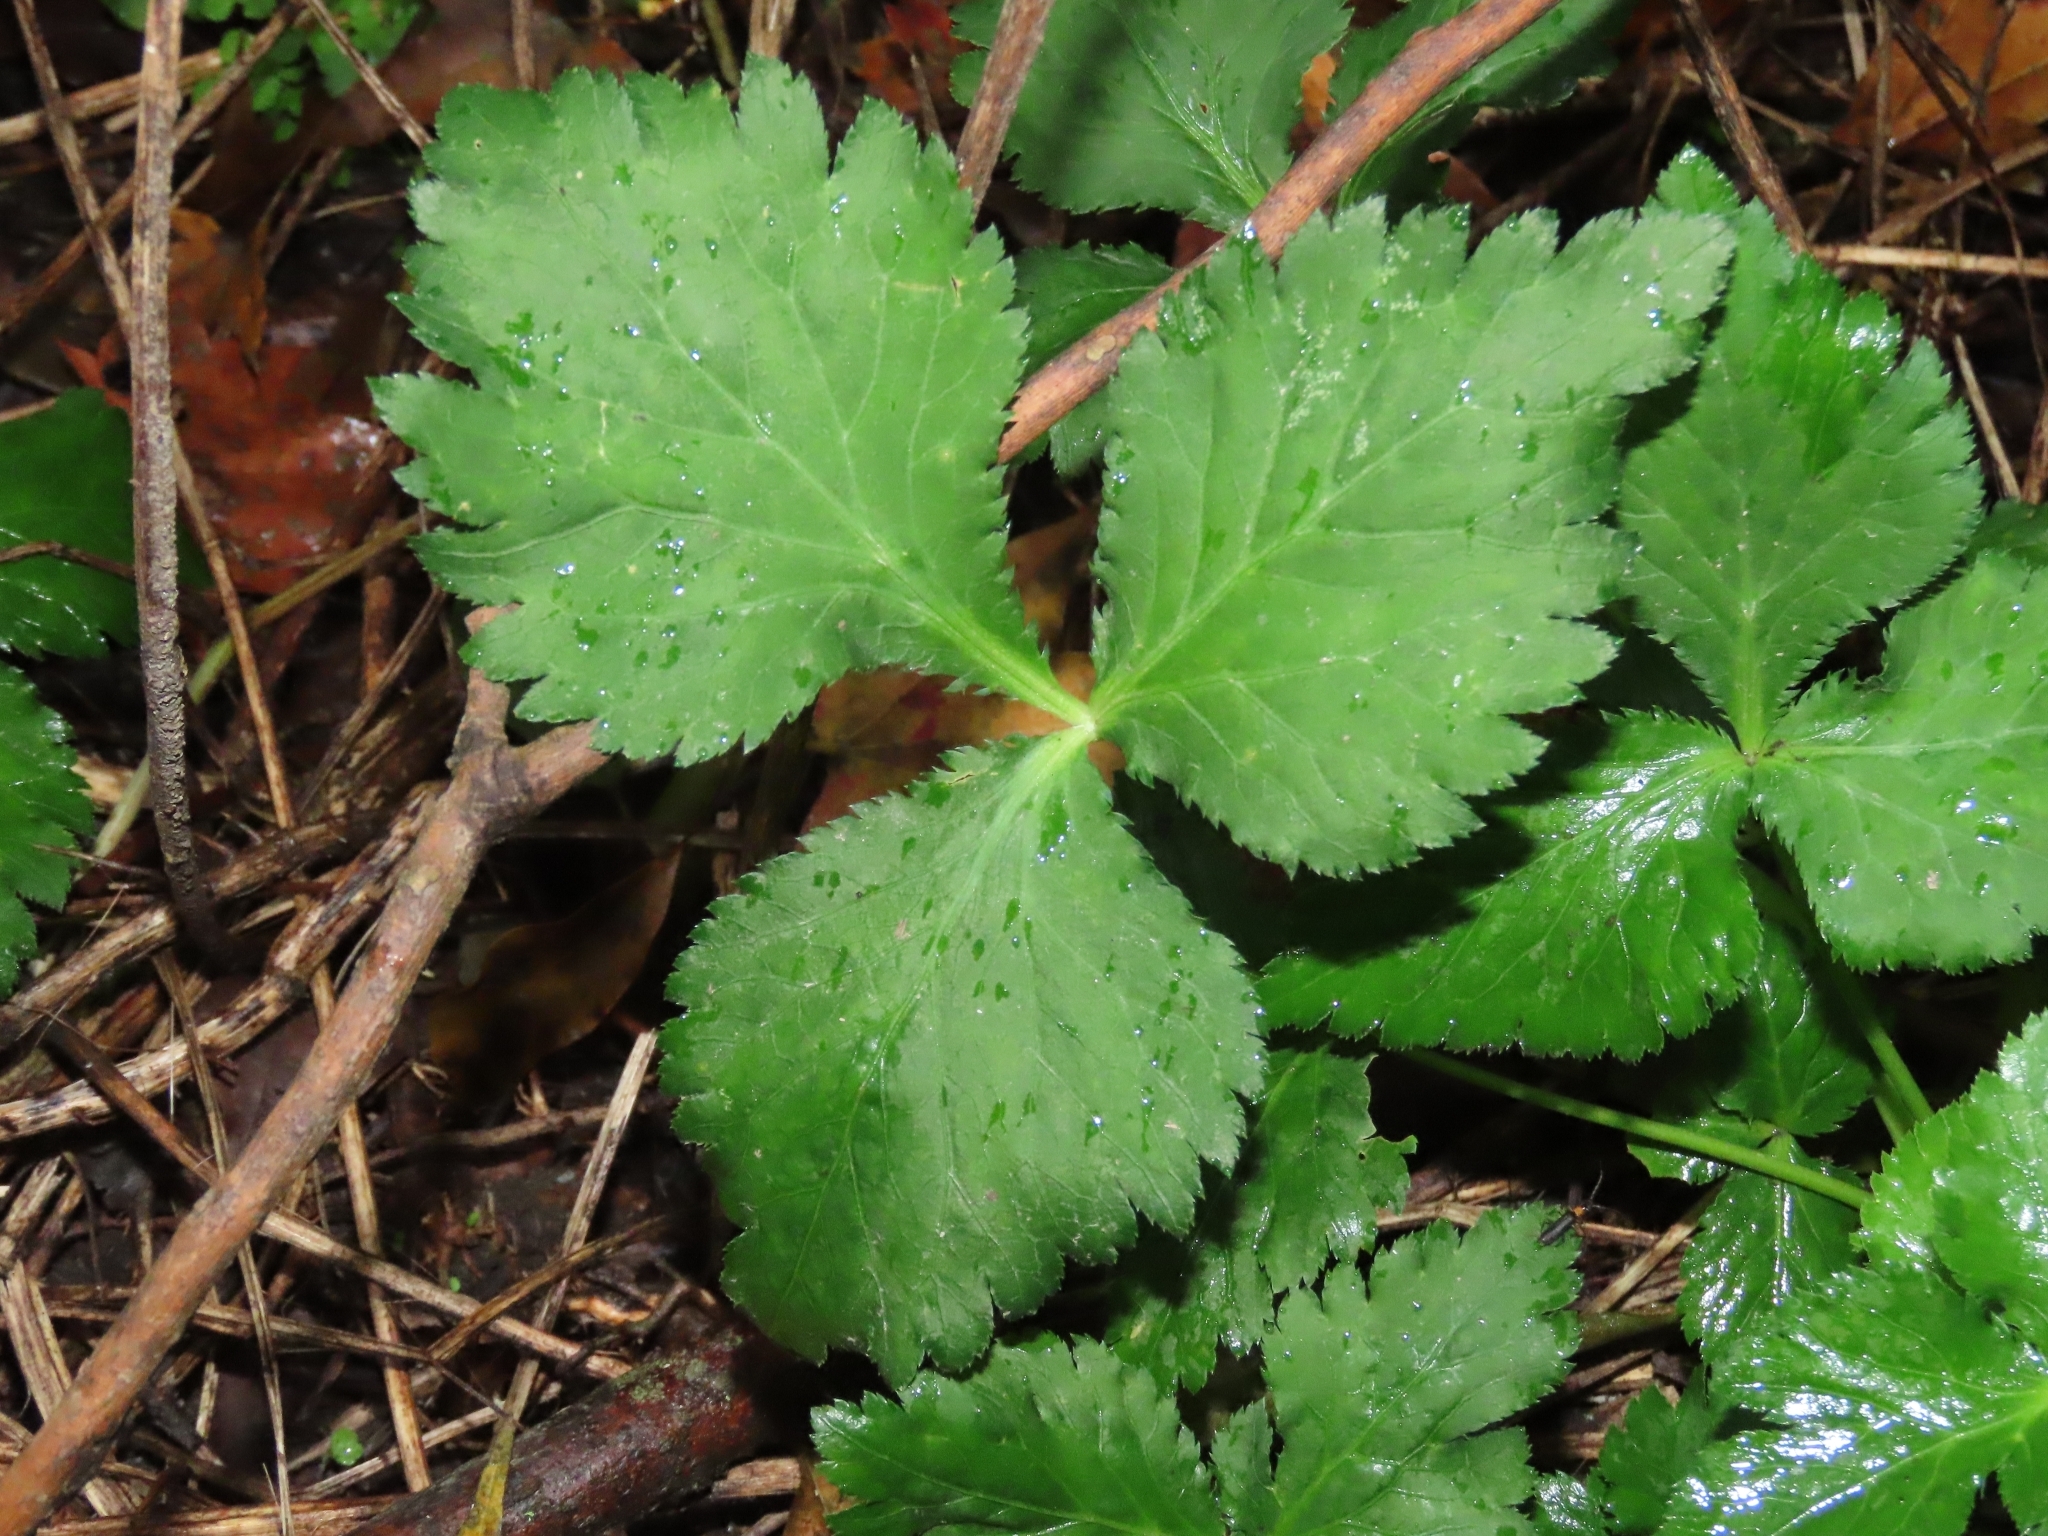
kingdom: Plantae
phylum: Tracheophyta
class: Magnoliopsida
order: Apiales
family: Apiaceae
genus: Cryptotaenia
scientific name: Cryptotaenia japonica
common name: Japanese cryptotaenia
